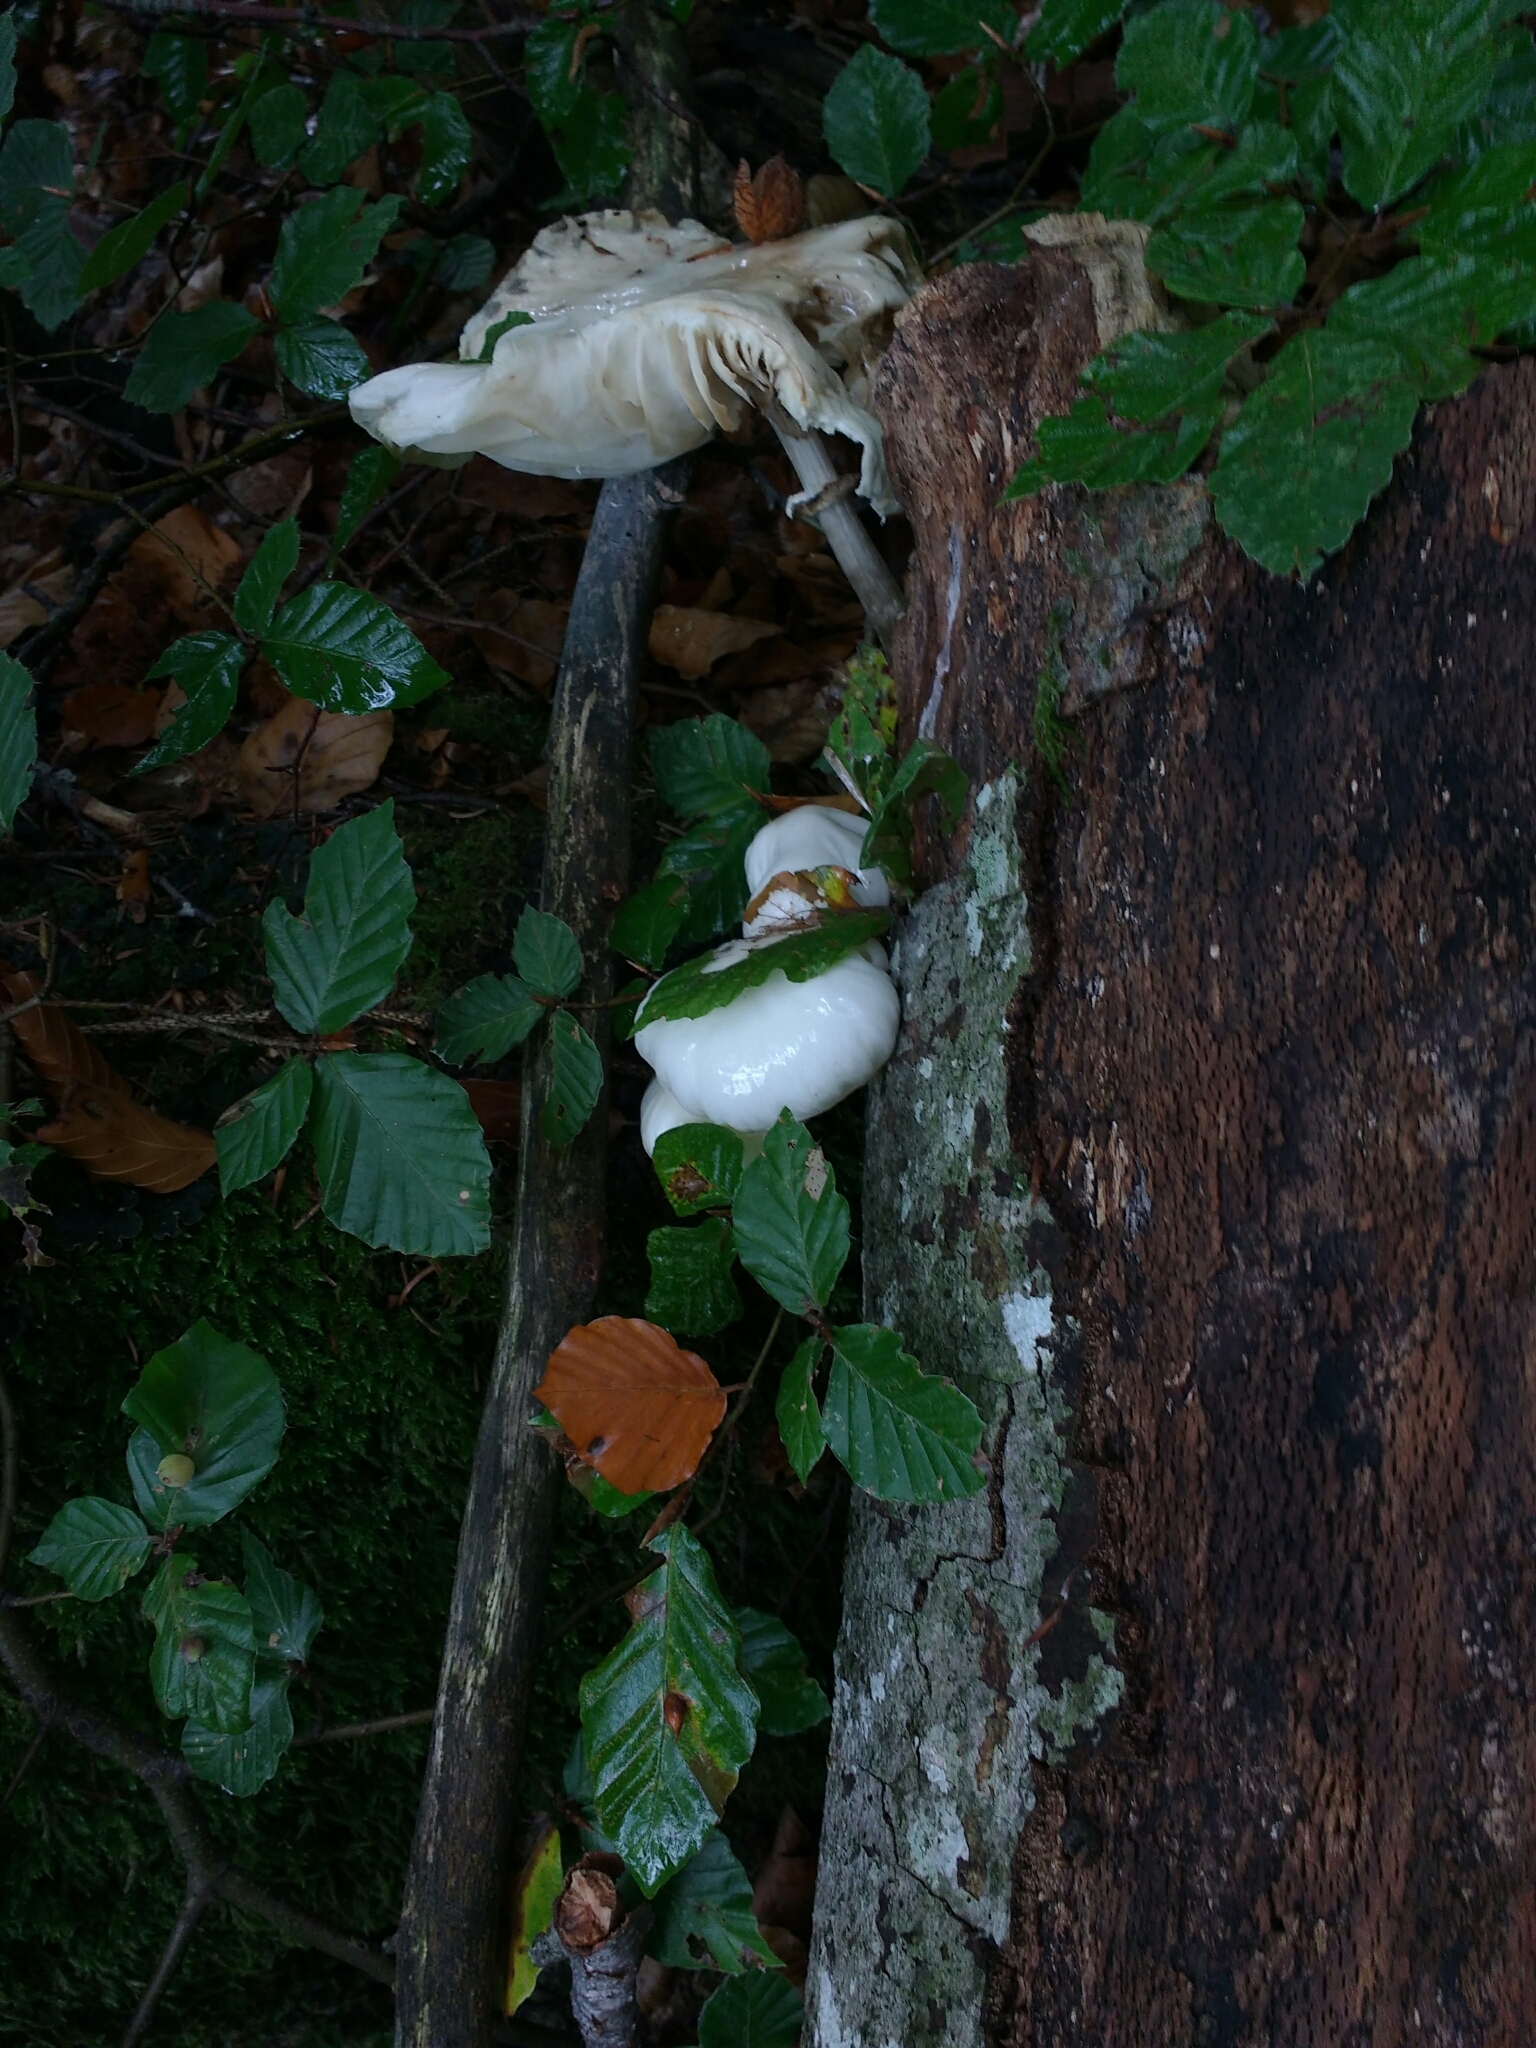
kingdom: Fungi
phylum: Basidiomycota
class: Agaricomycetes
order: Agaricales
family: Physalacriaceae
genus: Mucidula
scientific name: Mucidula mucida
